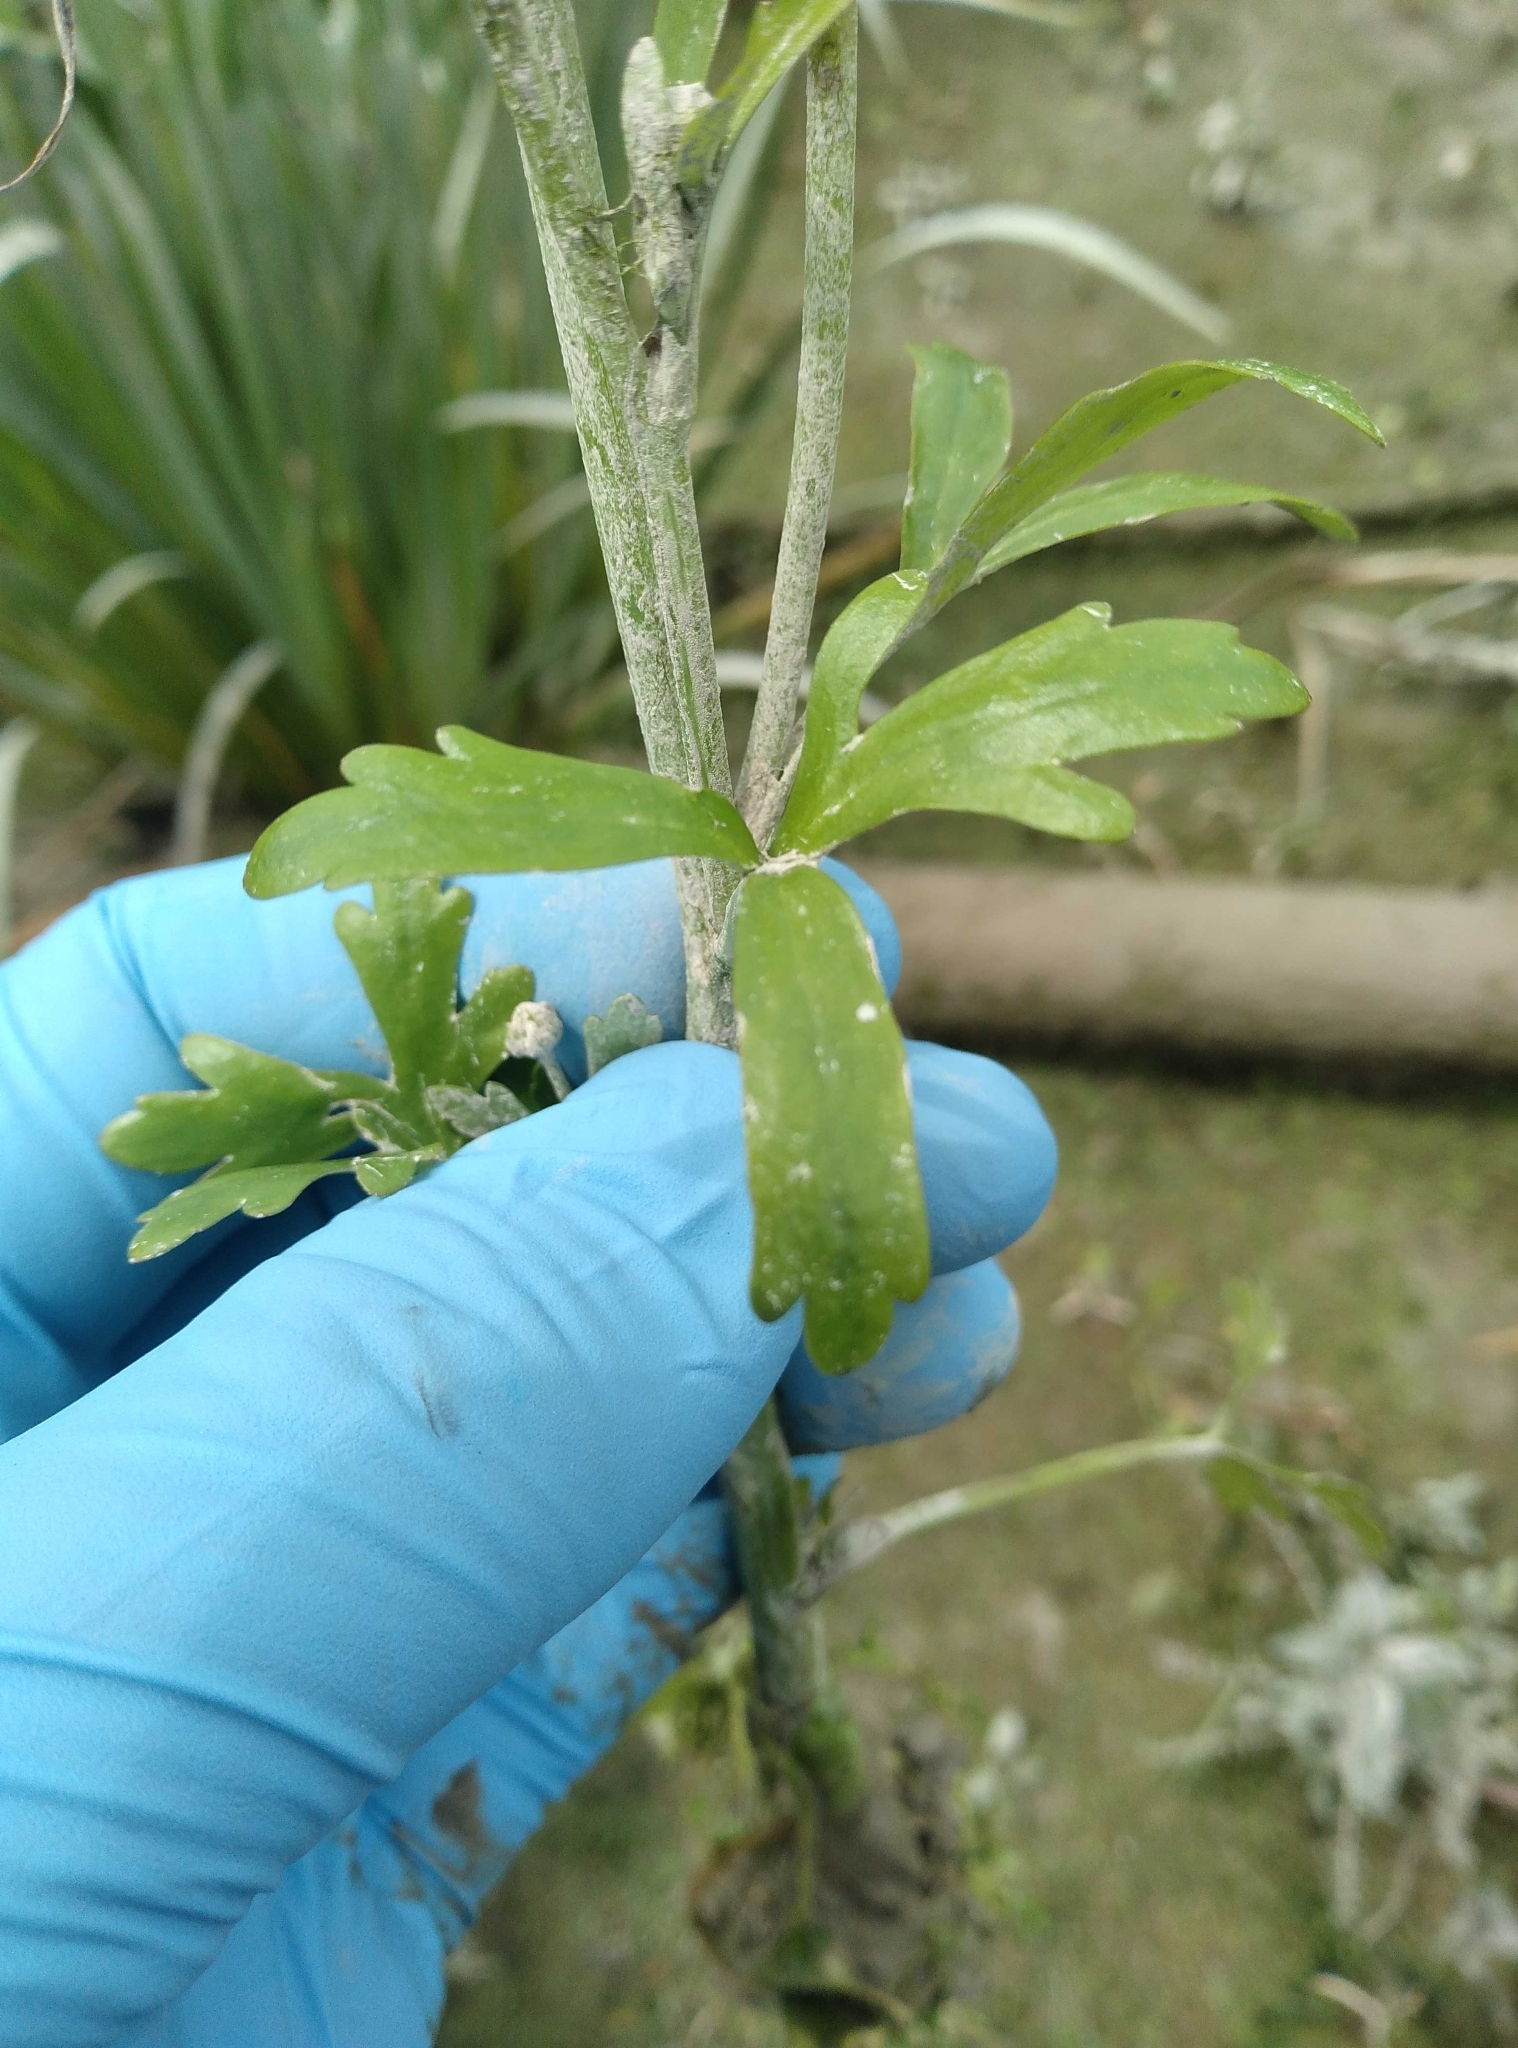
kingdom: Plantae
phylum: Tracheophyta
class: Magnoliopsida
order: Ranunculales
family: Ranunculaceae
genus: Ranunculus
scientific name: Ranunculus sceleratus
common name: Celery-leaved buttercup
